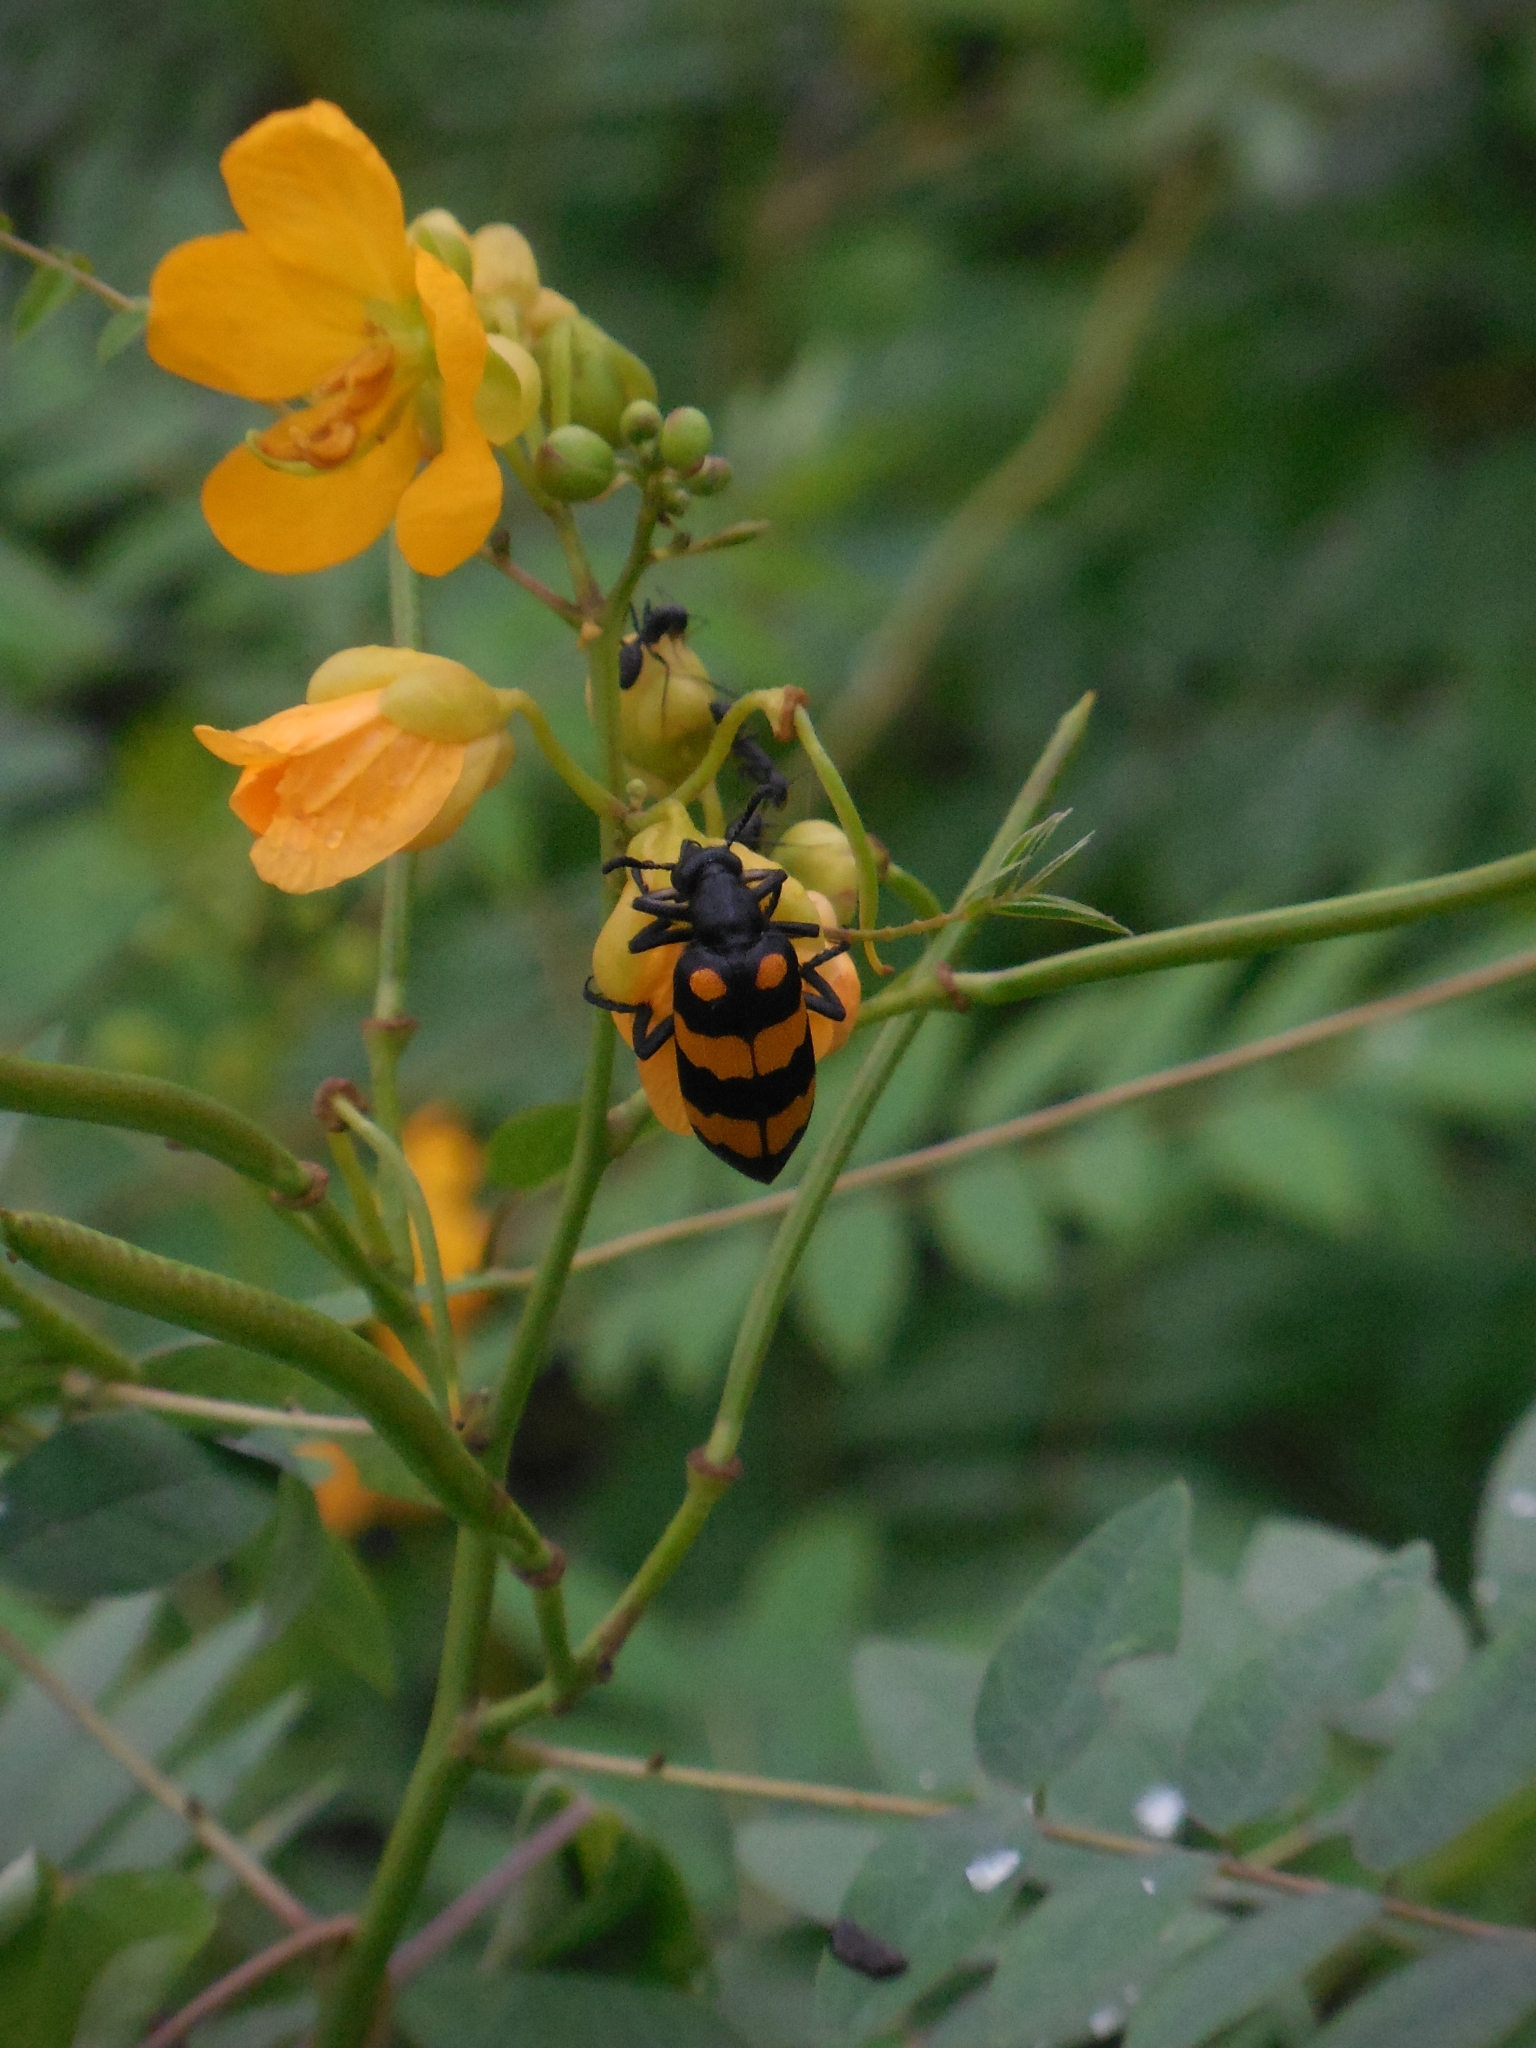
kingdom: Animalia
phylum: Arthropoda
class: Insecta
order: Coleoptera
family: Meloidae
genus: Hycleus
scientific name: Hycleus phaleratus
